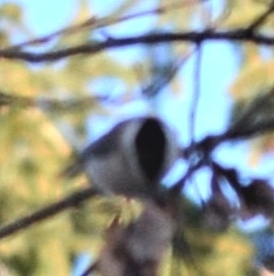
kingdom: Animalia
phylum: Chordata
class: Aves
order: Passeriformes
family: Paridae
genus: Poecile
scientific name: Poecile
